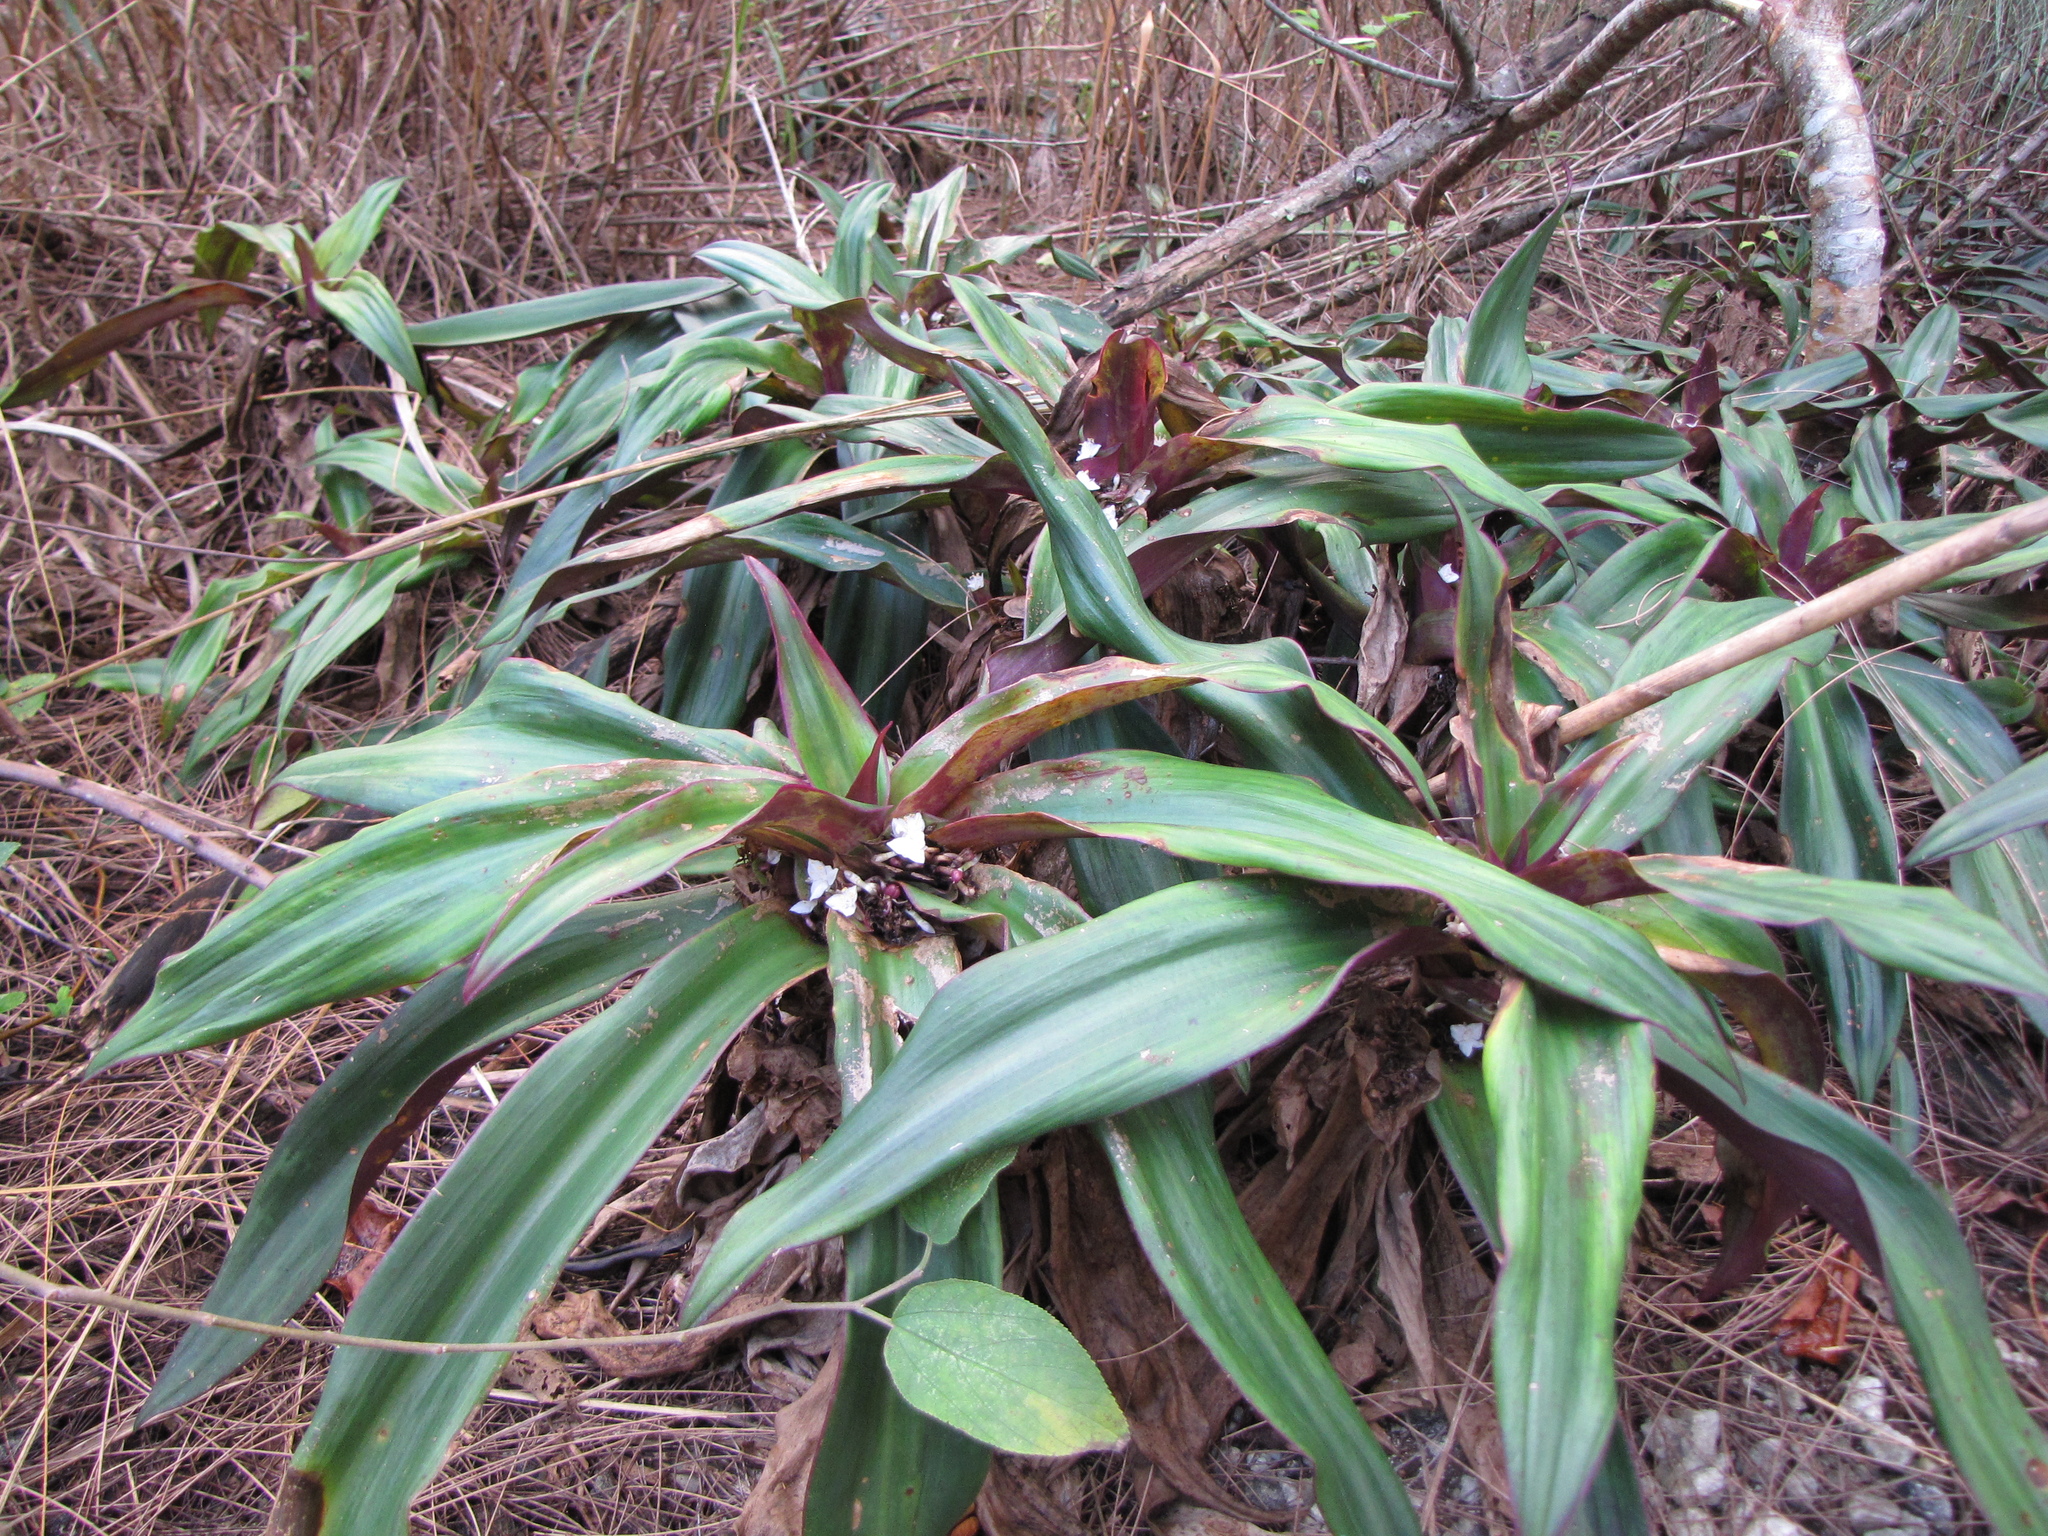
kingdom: Plantae
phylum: Tracheophyta
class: Liliopsida
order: Commelinales
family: Commelinaceae
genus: Tradescantia
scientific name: Tradescantia spathacea
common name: Boatlily
